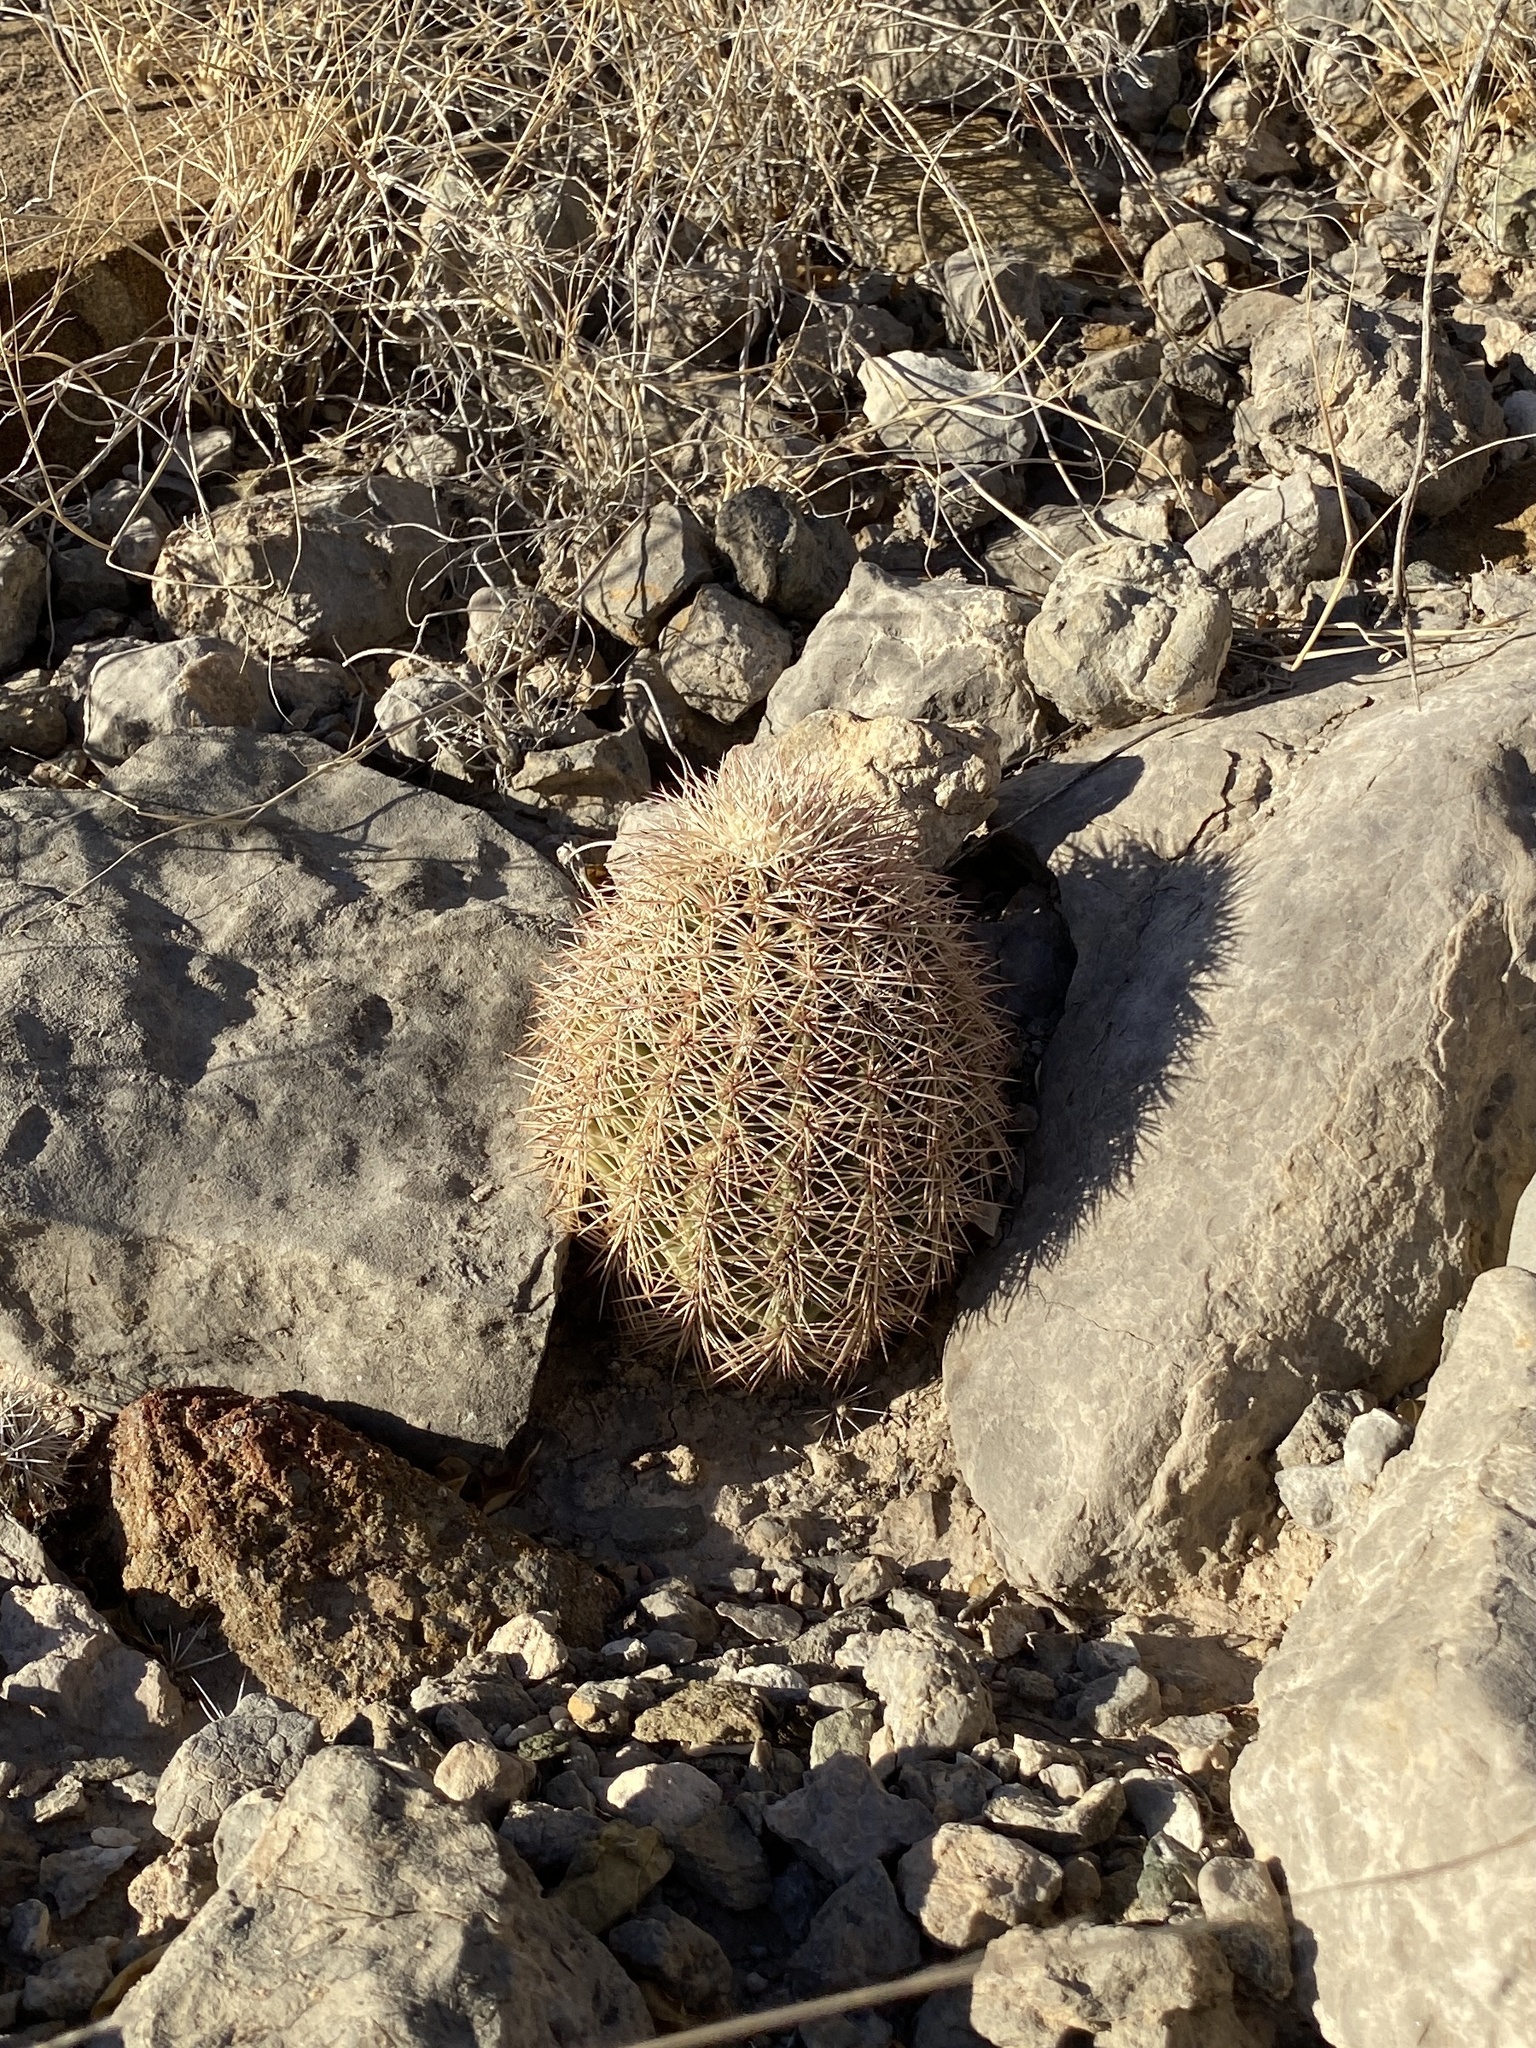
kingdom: Plantae
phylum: Tracheophyta
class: Magnoliopsida
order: Caryophyllales
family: Cactaceae
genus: Echinocereus
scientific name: Echinocereus dasyacanthus
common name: Spiny hedgehog cactus
